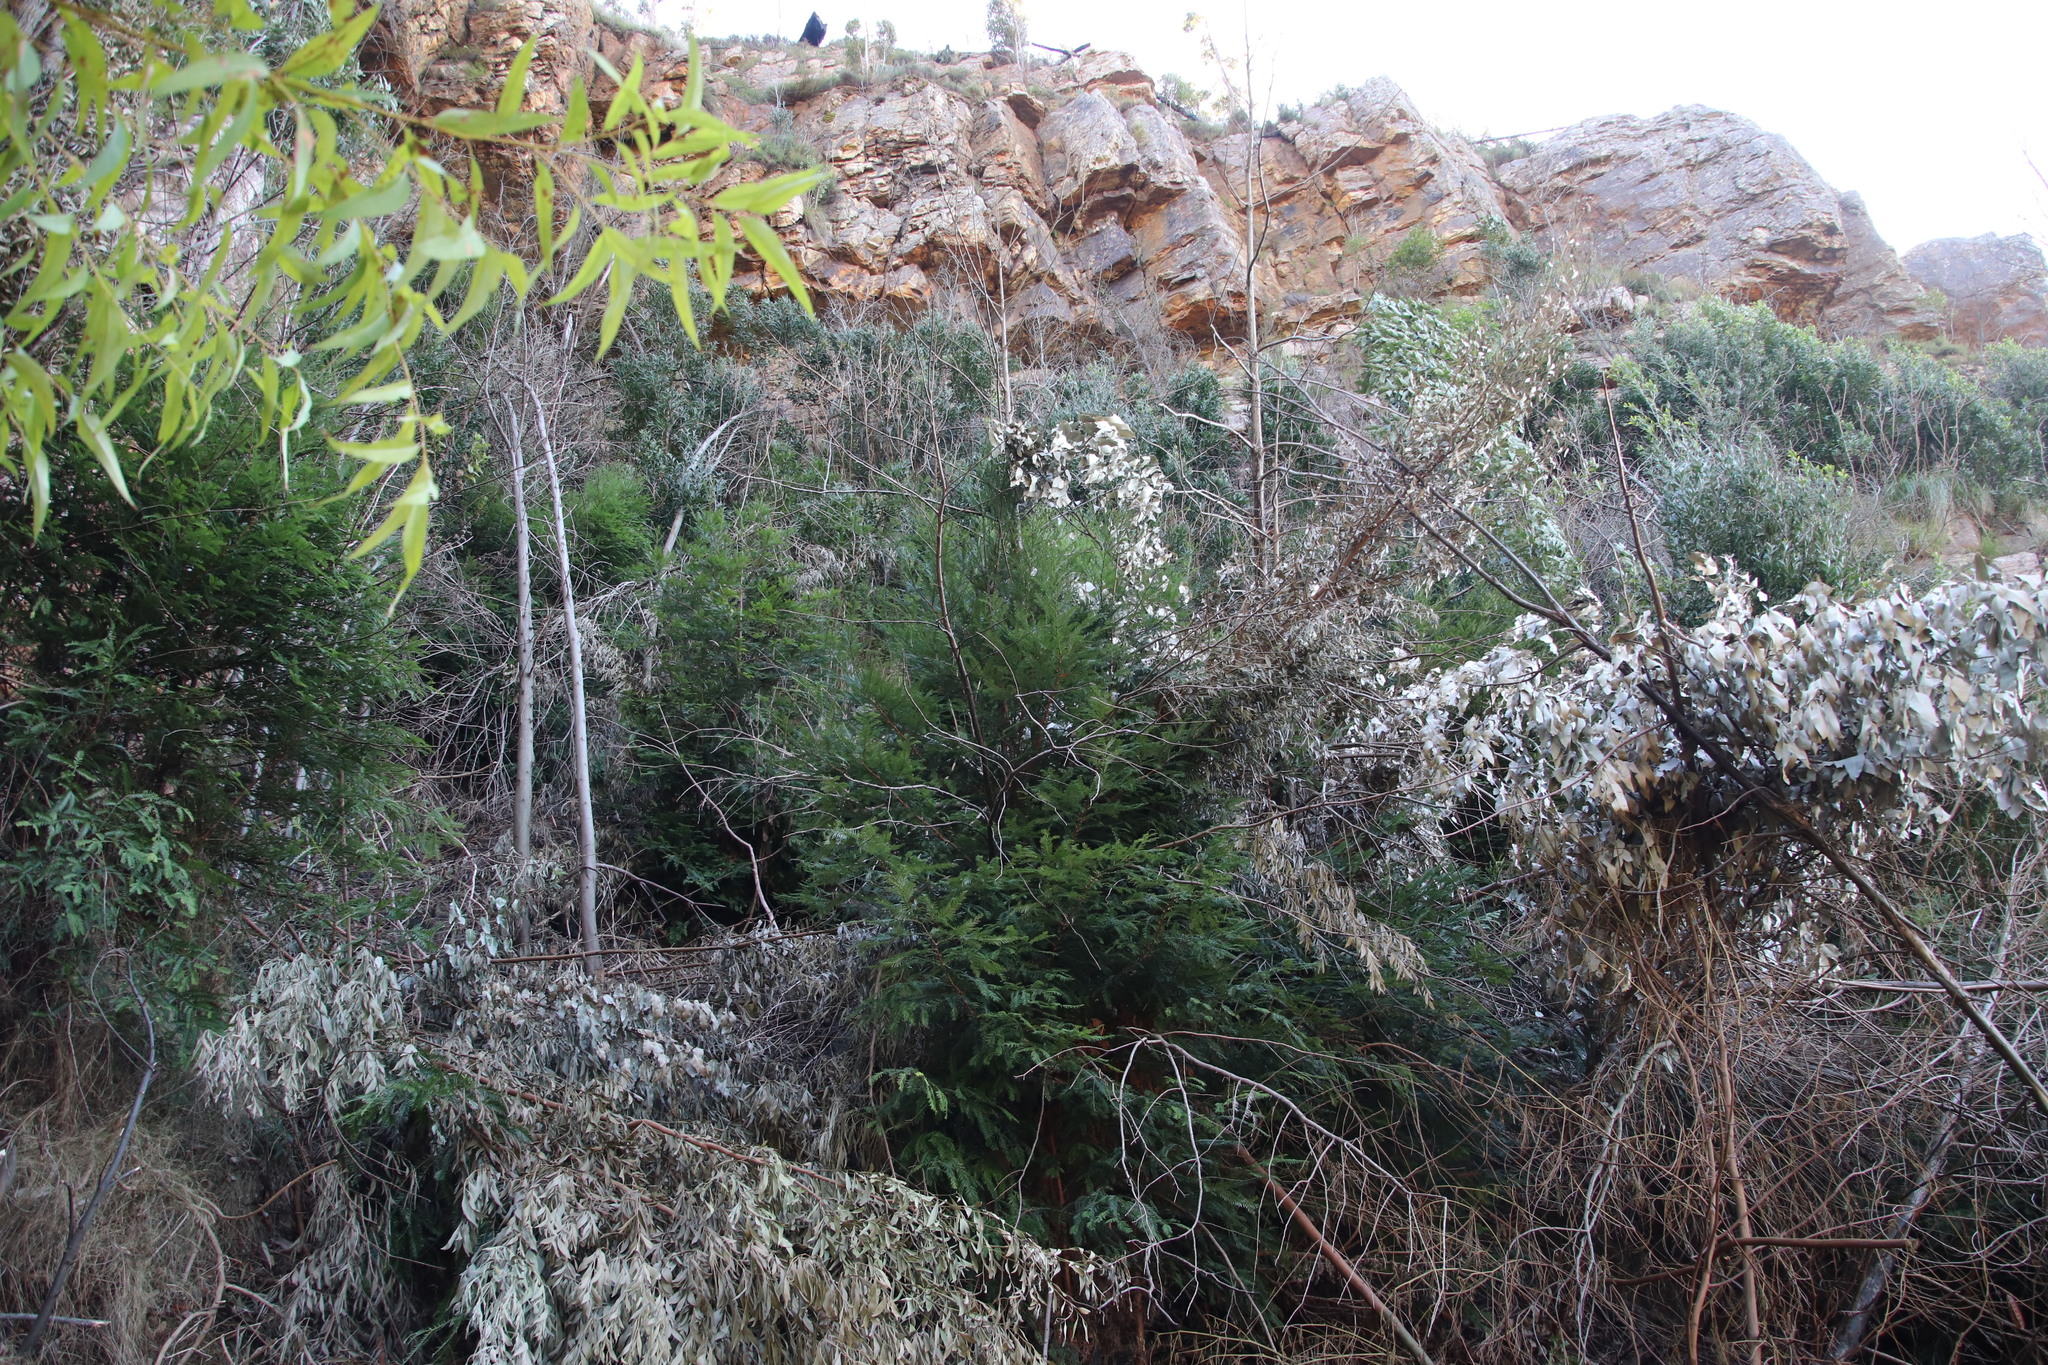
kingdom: Plantae
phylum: Tracheophyta
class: Pinopsida
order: Pinales
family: Cupressaceae
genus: Sequoia
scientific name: Sequoia sempervirens
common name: Coast redwood
